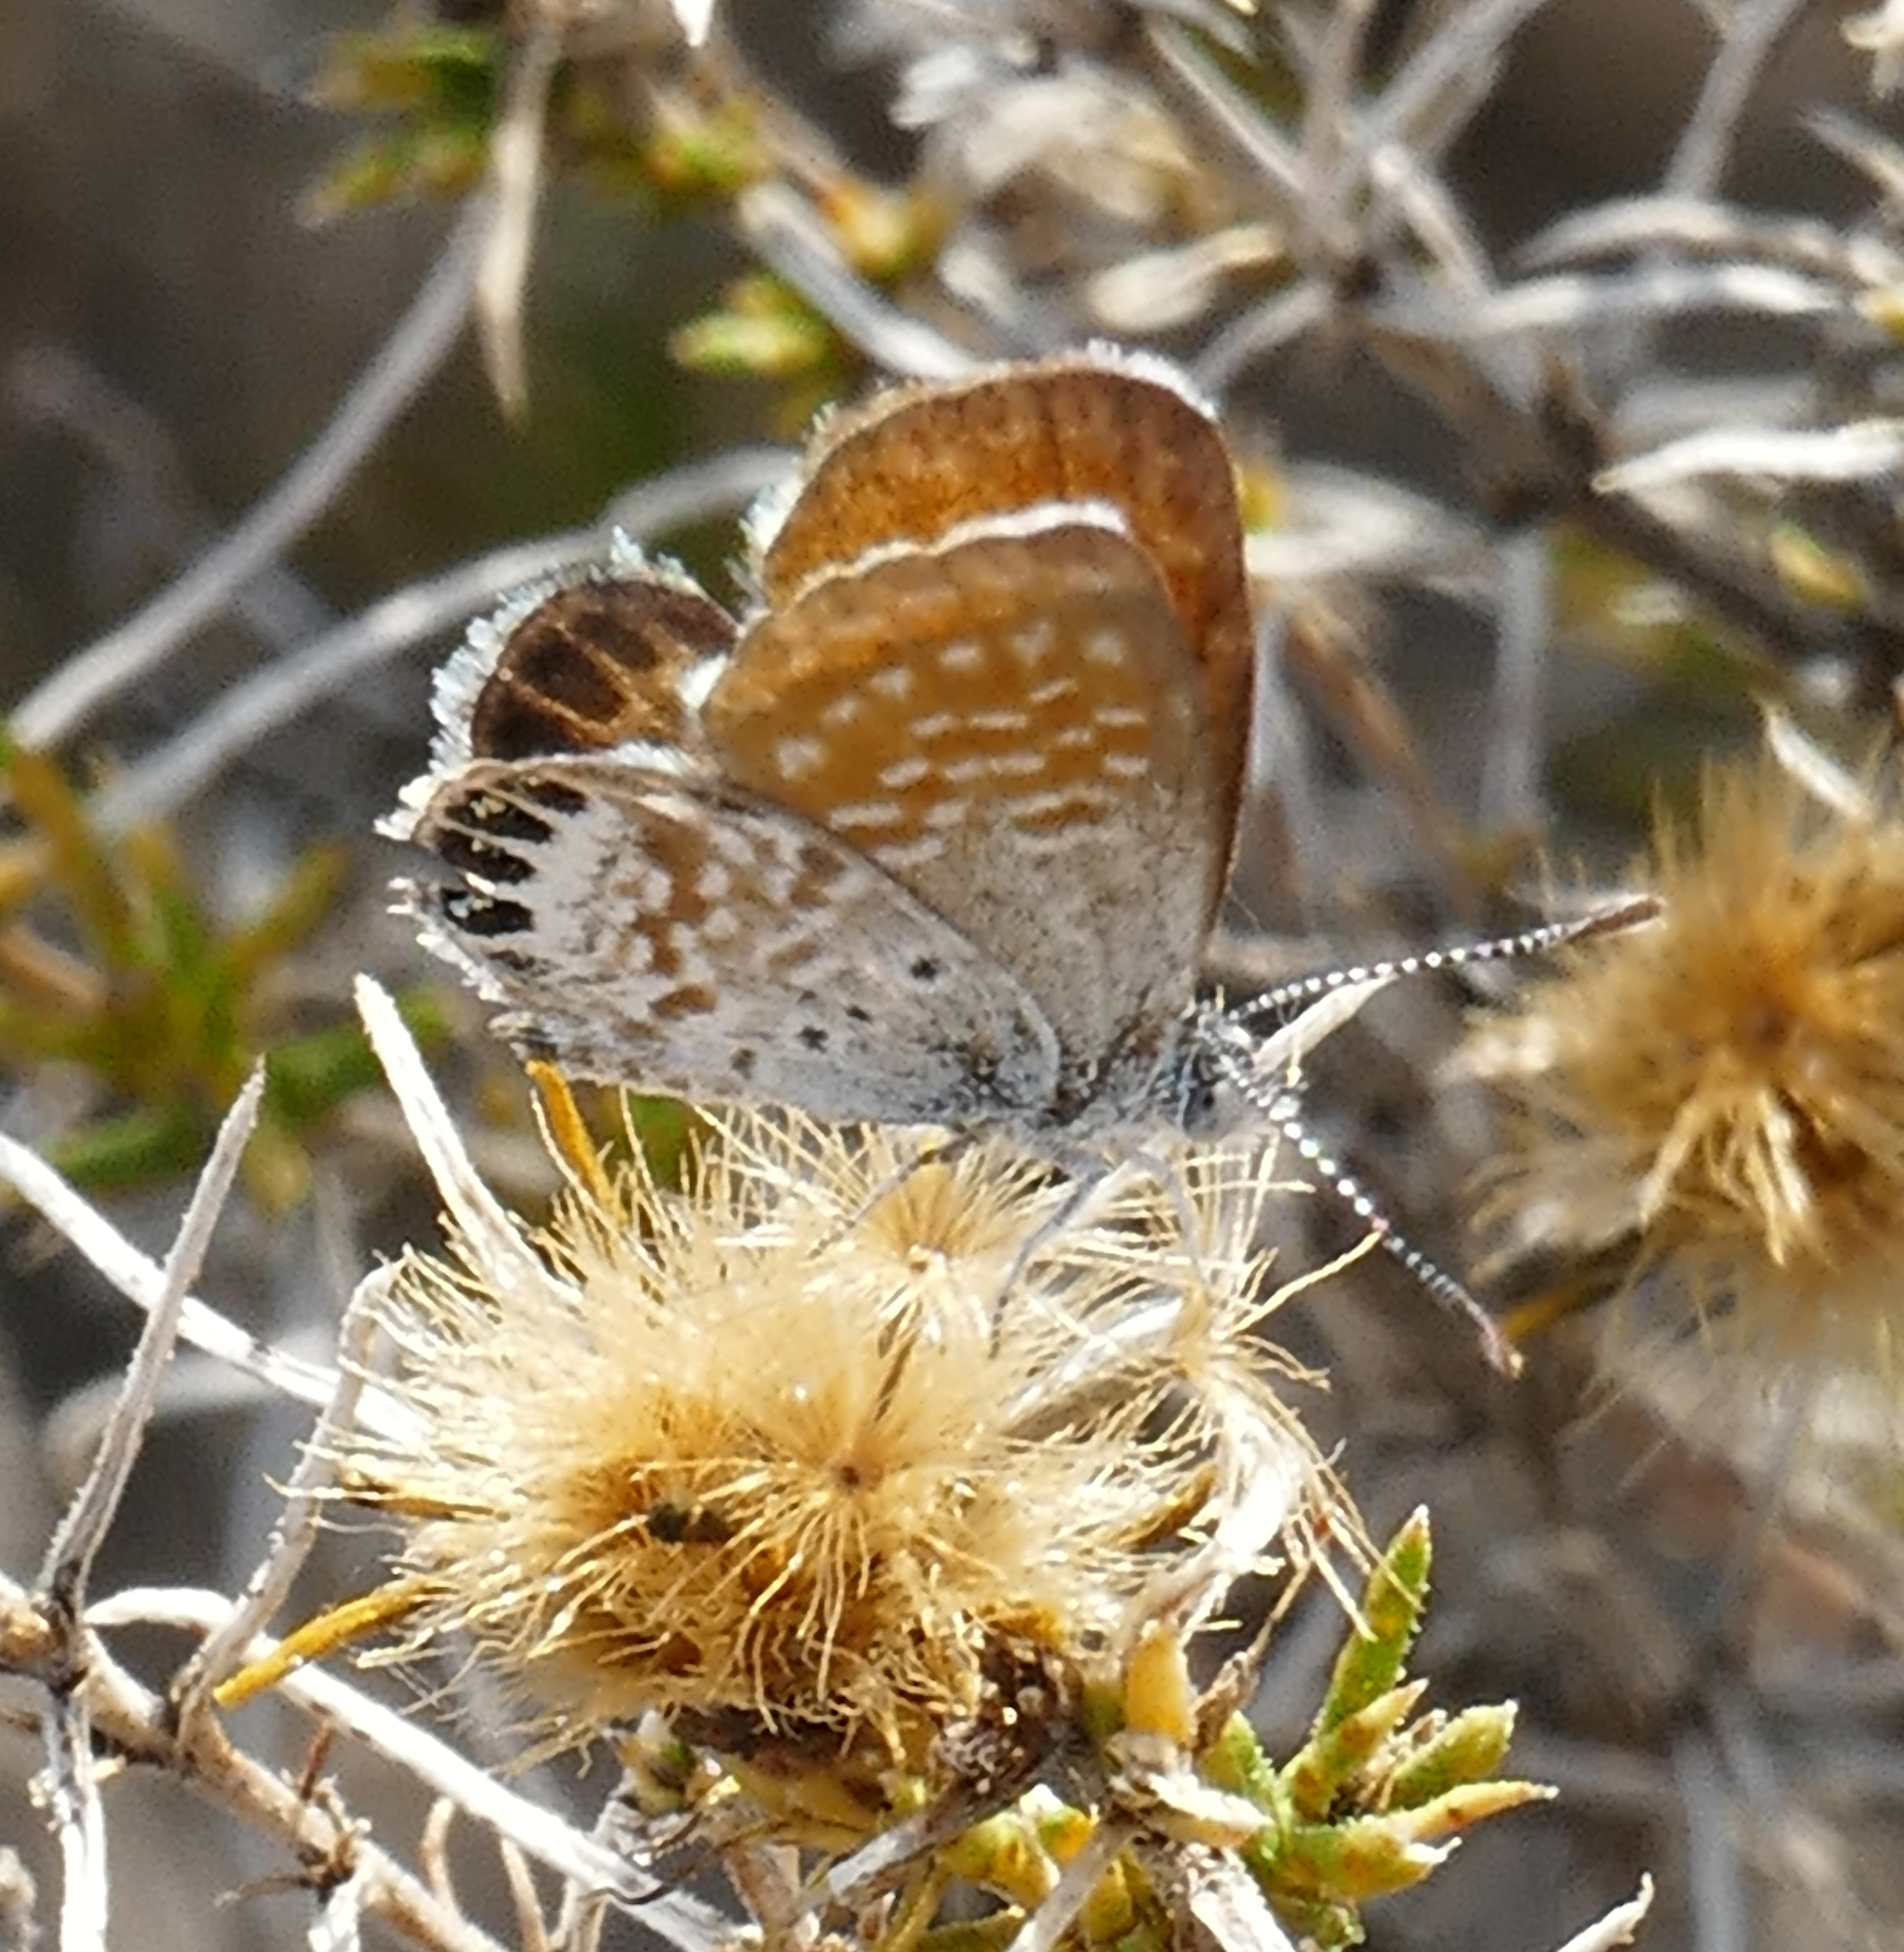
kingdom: Animalia
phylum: Arthropoda
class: Insecta
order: Lepidoptera
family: Lycaenidae
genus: Brephidium
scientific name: Brephidium exilis
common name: Pygmy blue
